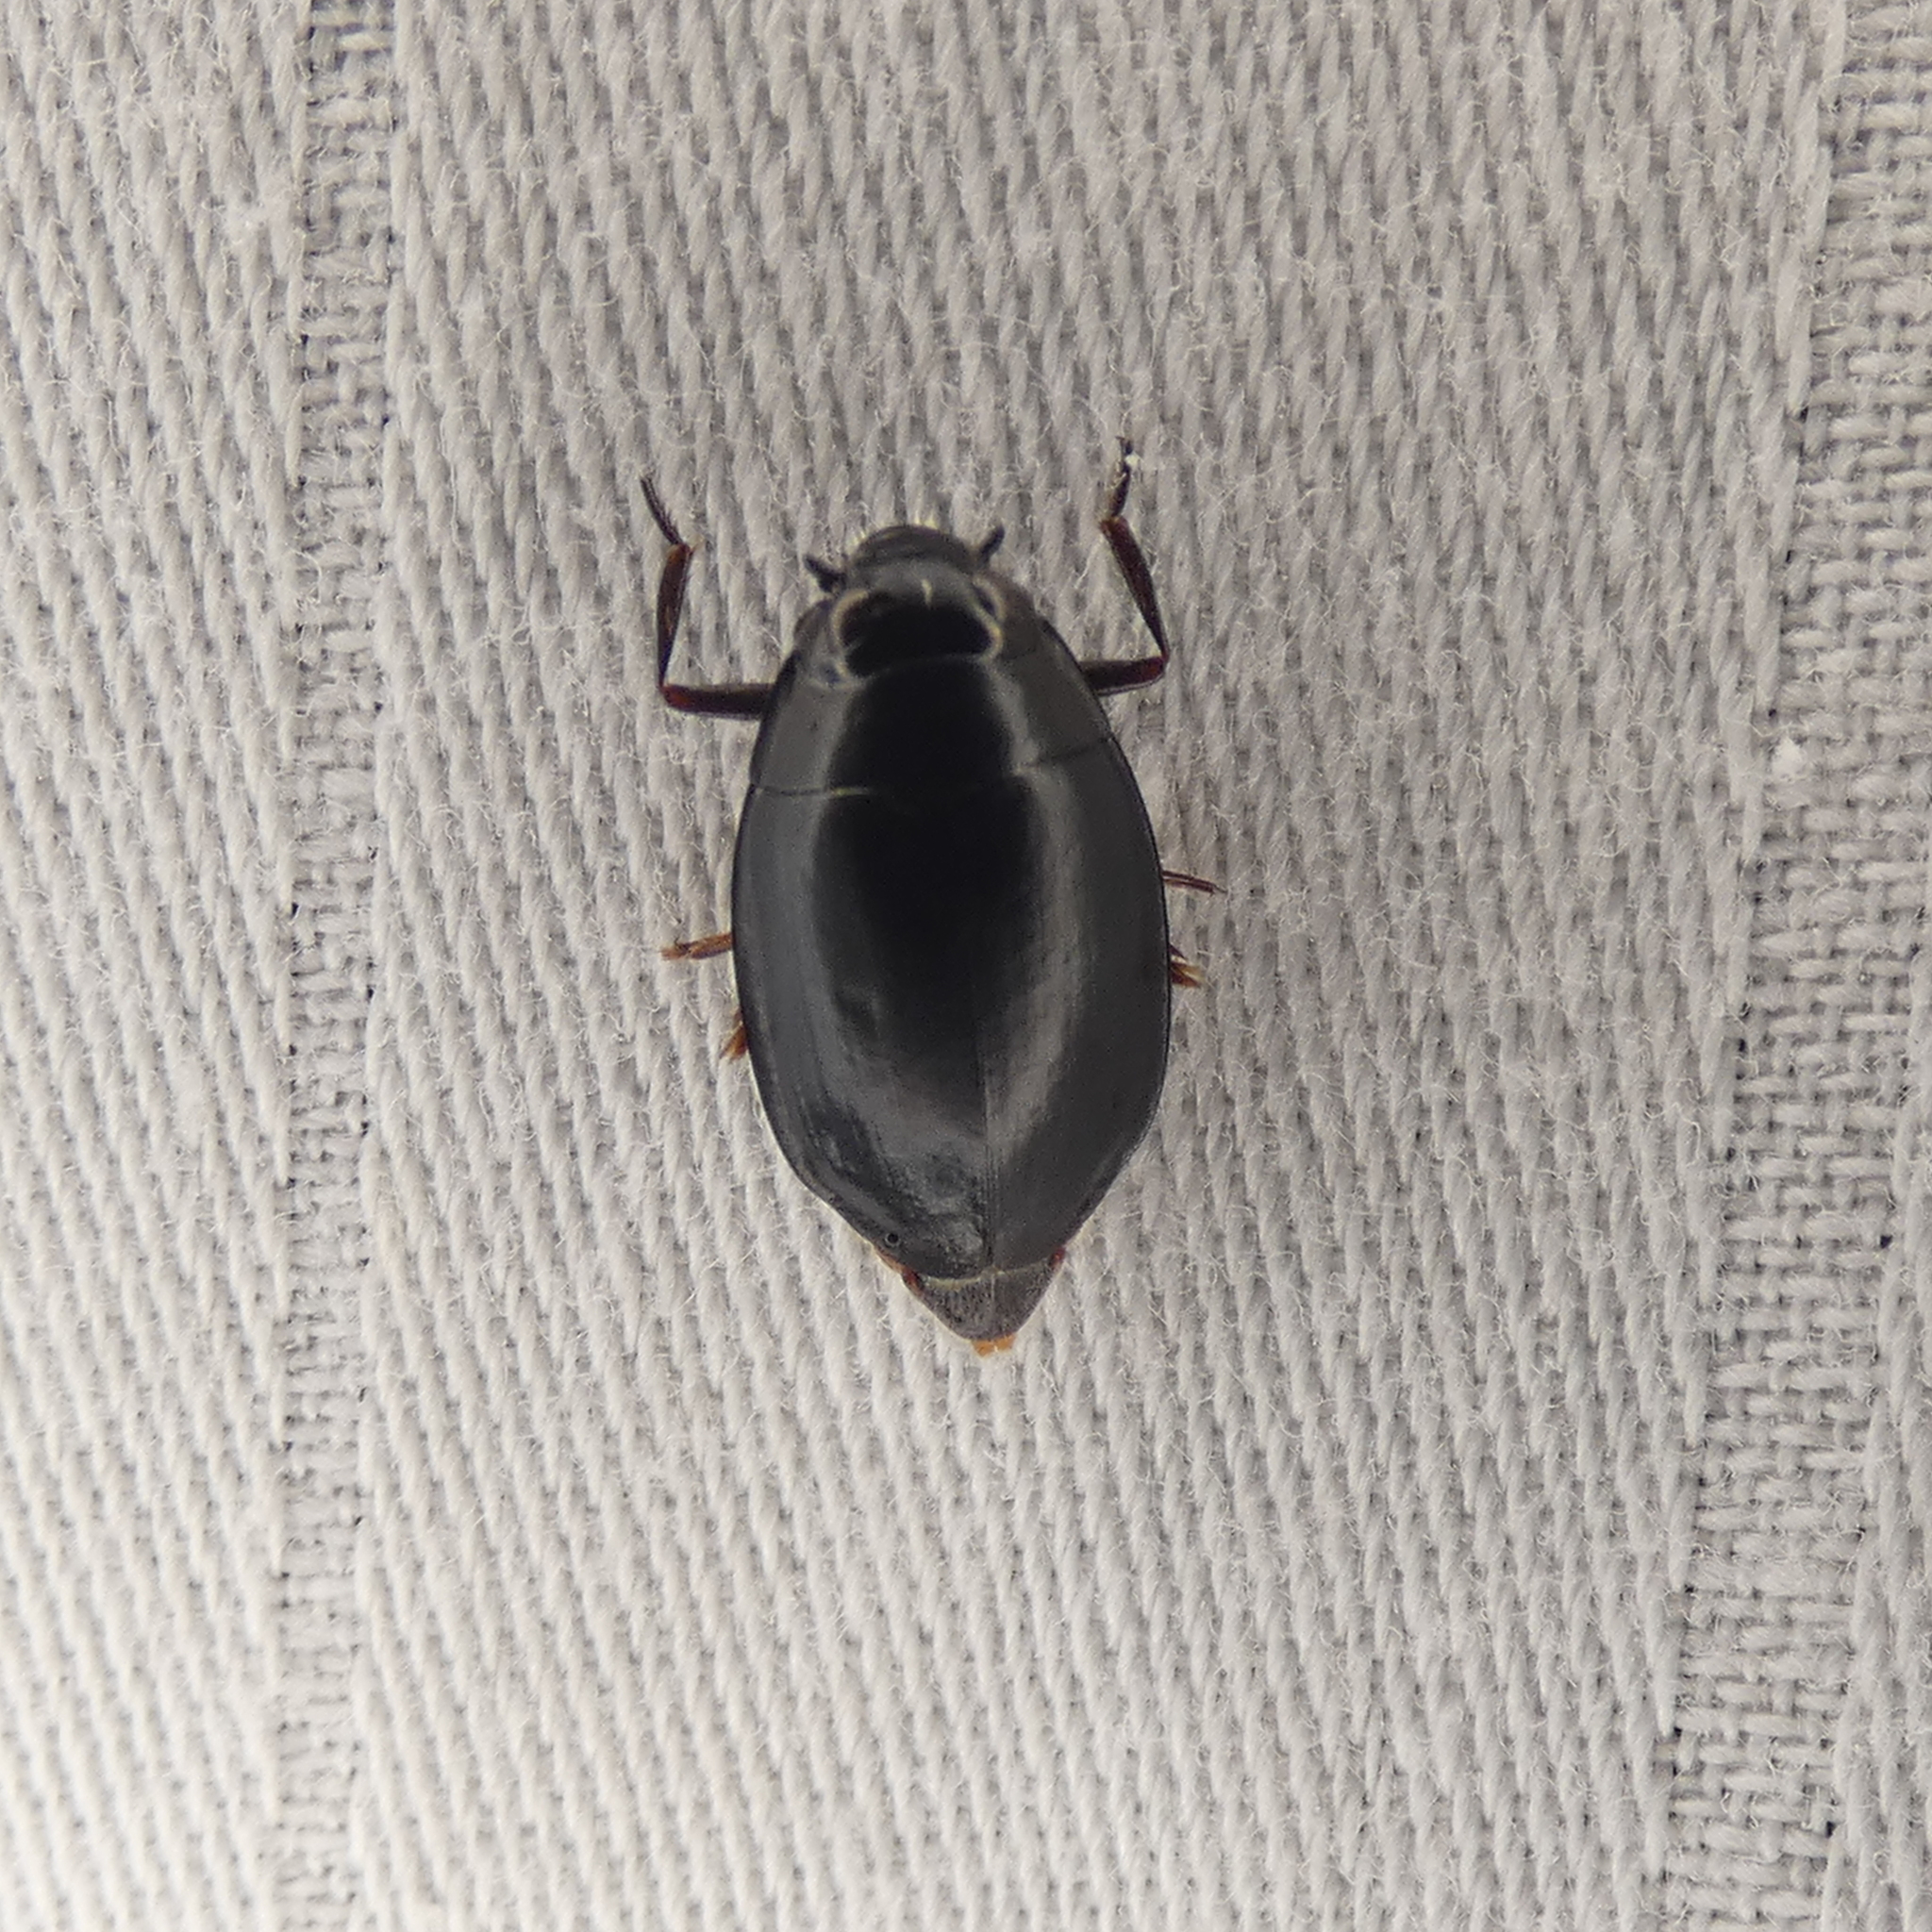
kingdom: Animalia
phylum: Arthropoda
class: Insecta
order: Coleoptera
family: Gyrinidae
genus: Dineutus
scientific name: Dineutus
